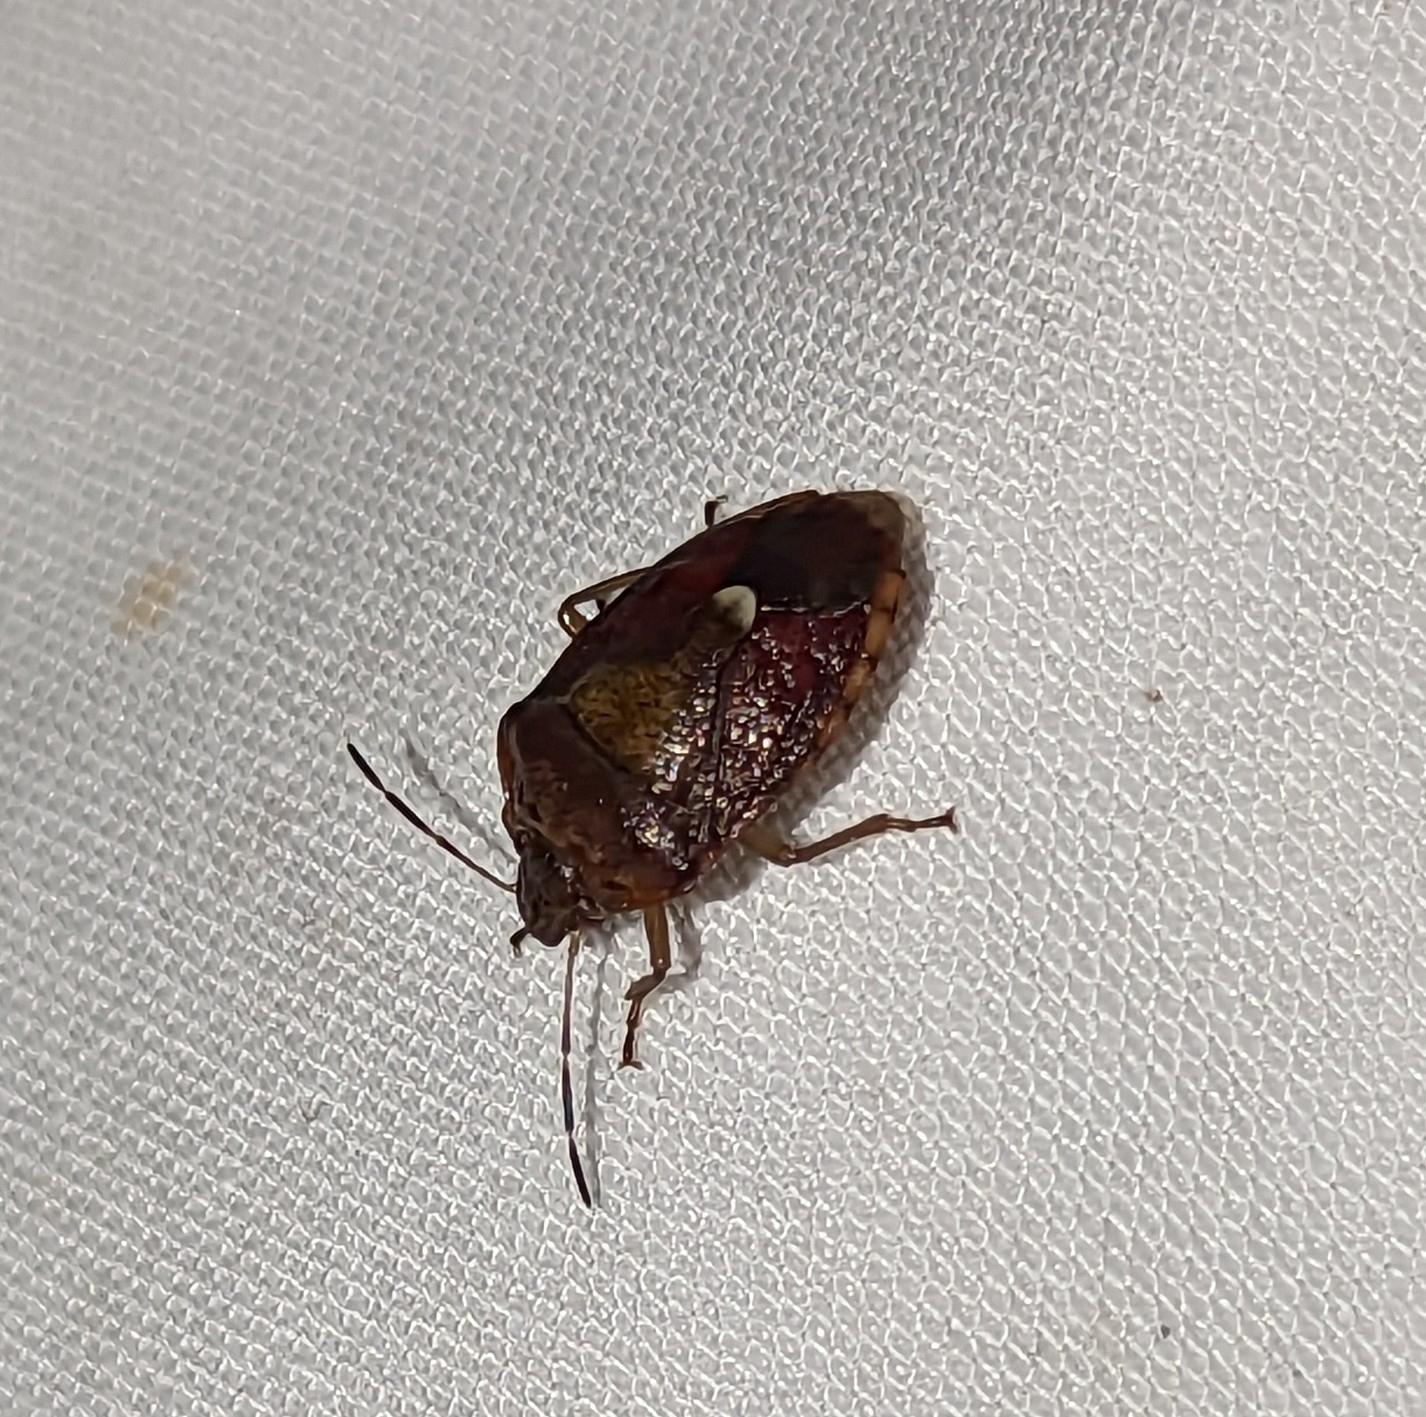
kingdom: Animalia
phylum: Arthropoda
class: Insecta
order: Hemiptera
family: Pentatomidae
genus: Banasa
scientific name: Banasa sordida
